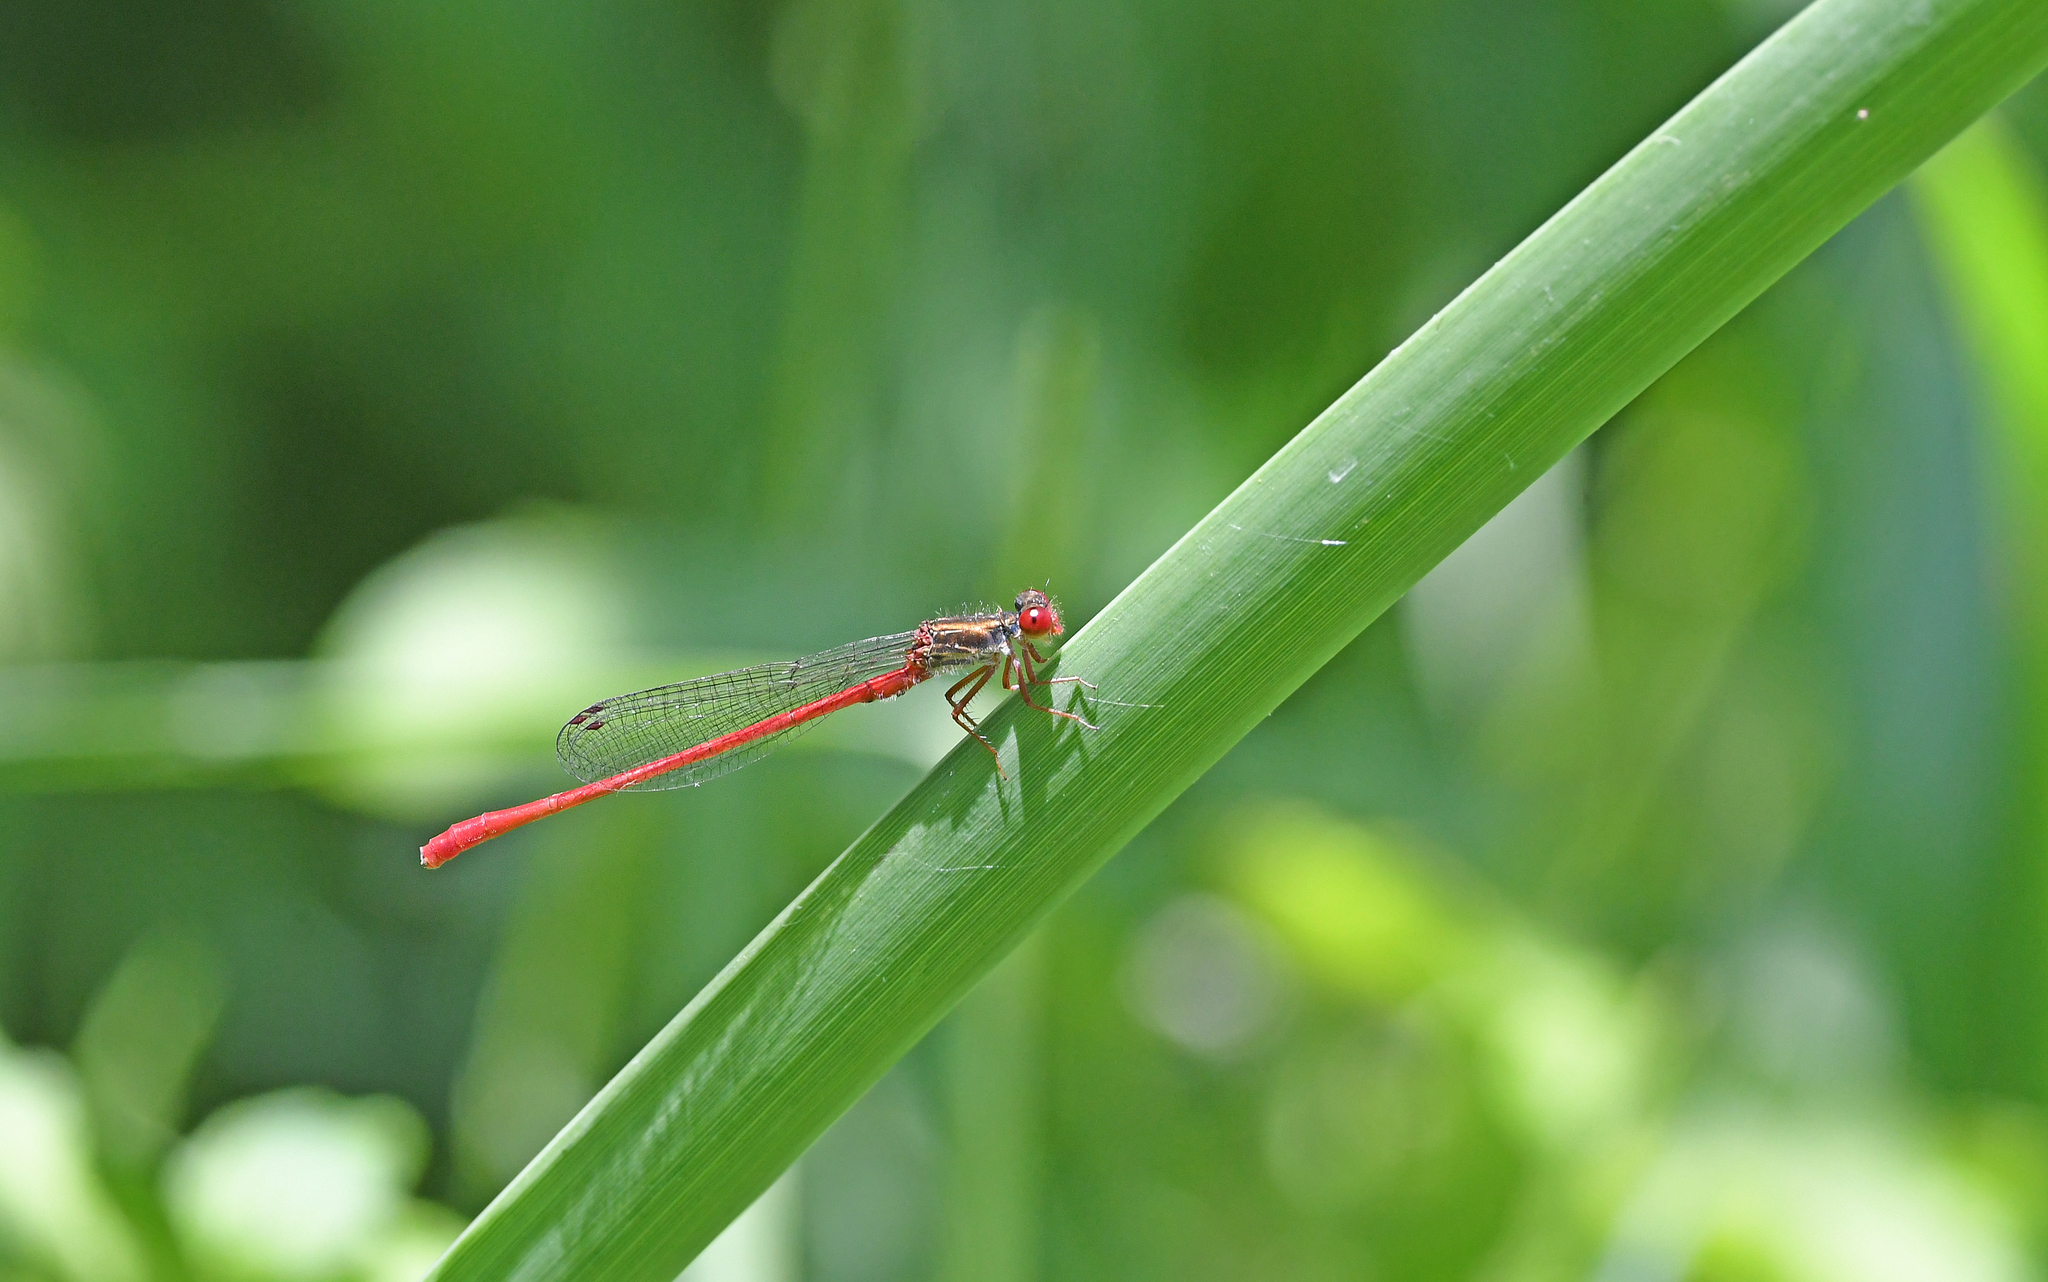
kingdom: Animalia
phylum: Arthropoda
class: Insecta
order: Odonata
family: Coenagrionidae
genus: Ceriagrion
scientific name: Ceriagrion tenellum
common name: Small red damselfly
